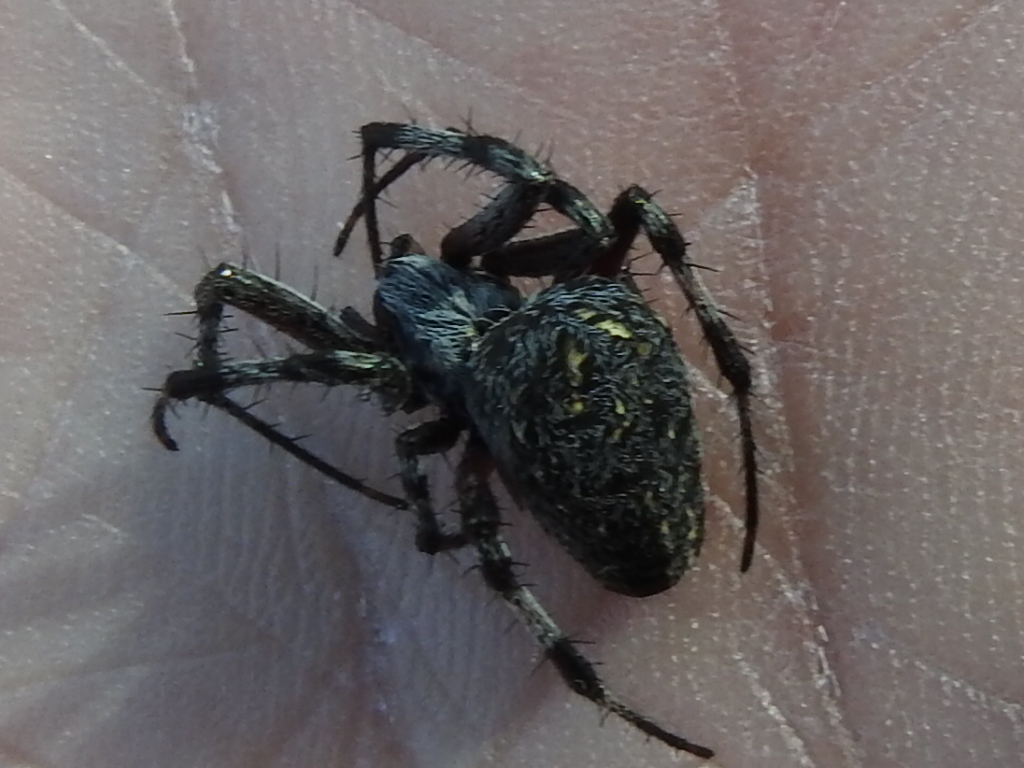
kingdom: Animalia
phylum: Arthropoda
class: Arachnida
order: Araneae
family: Araneidae
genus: Neoscona
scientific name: Neoscona oaxacensis
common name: Orb weavers
